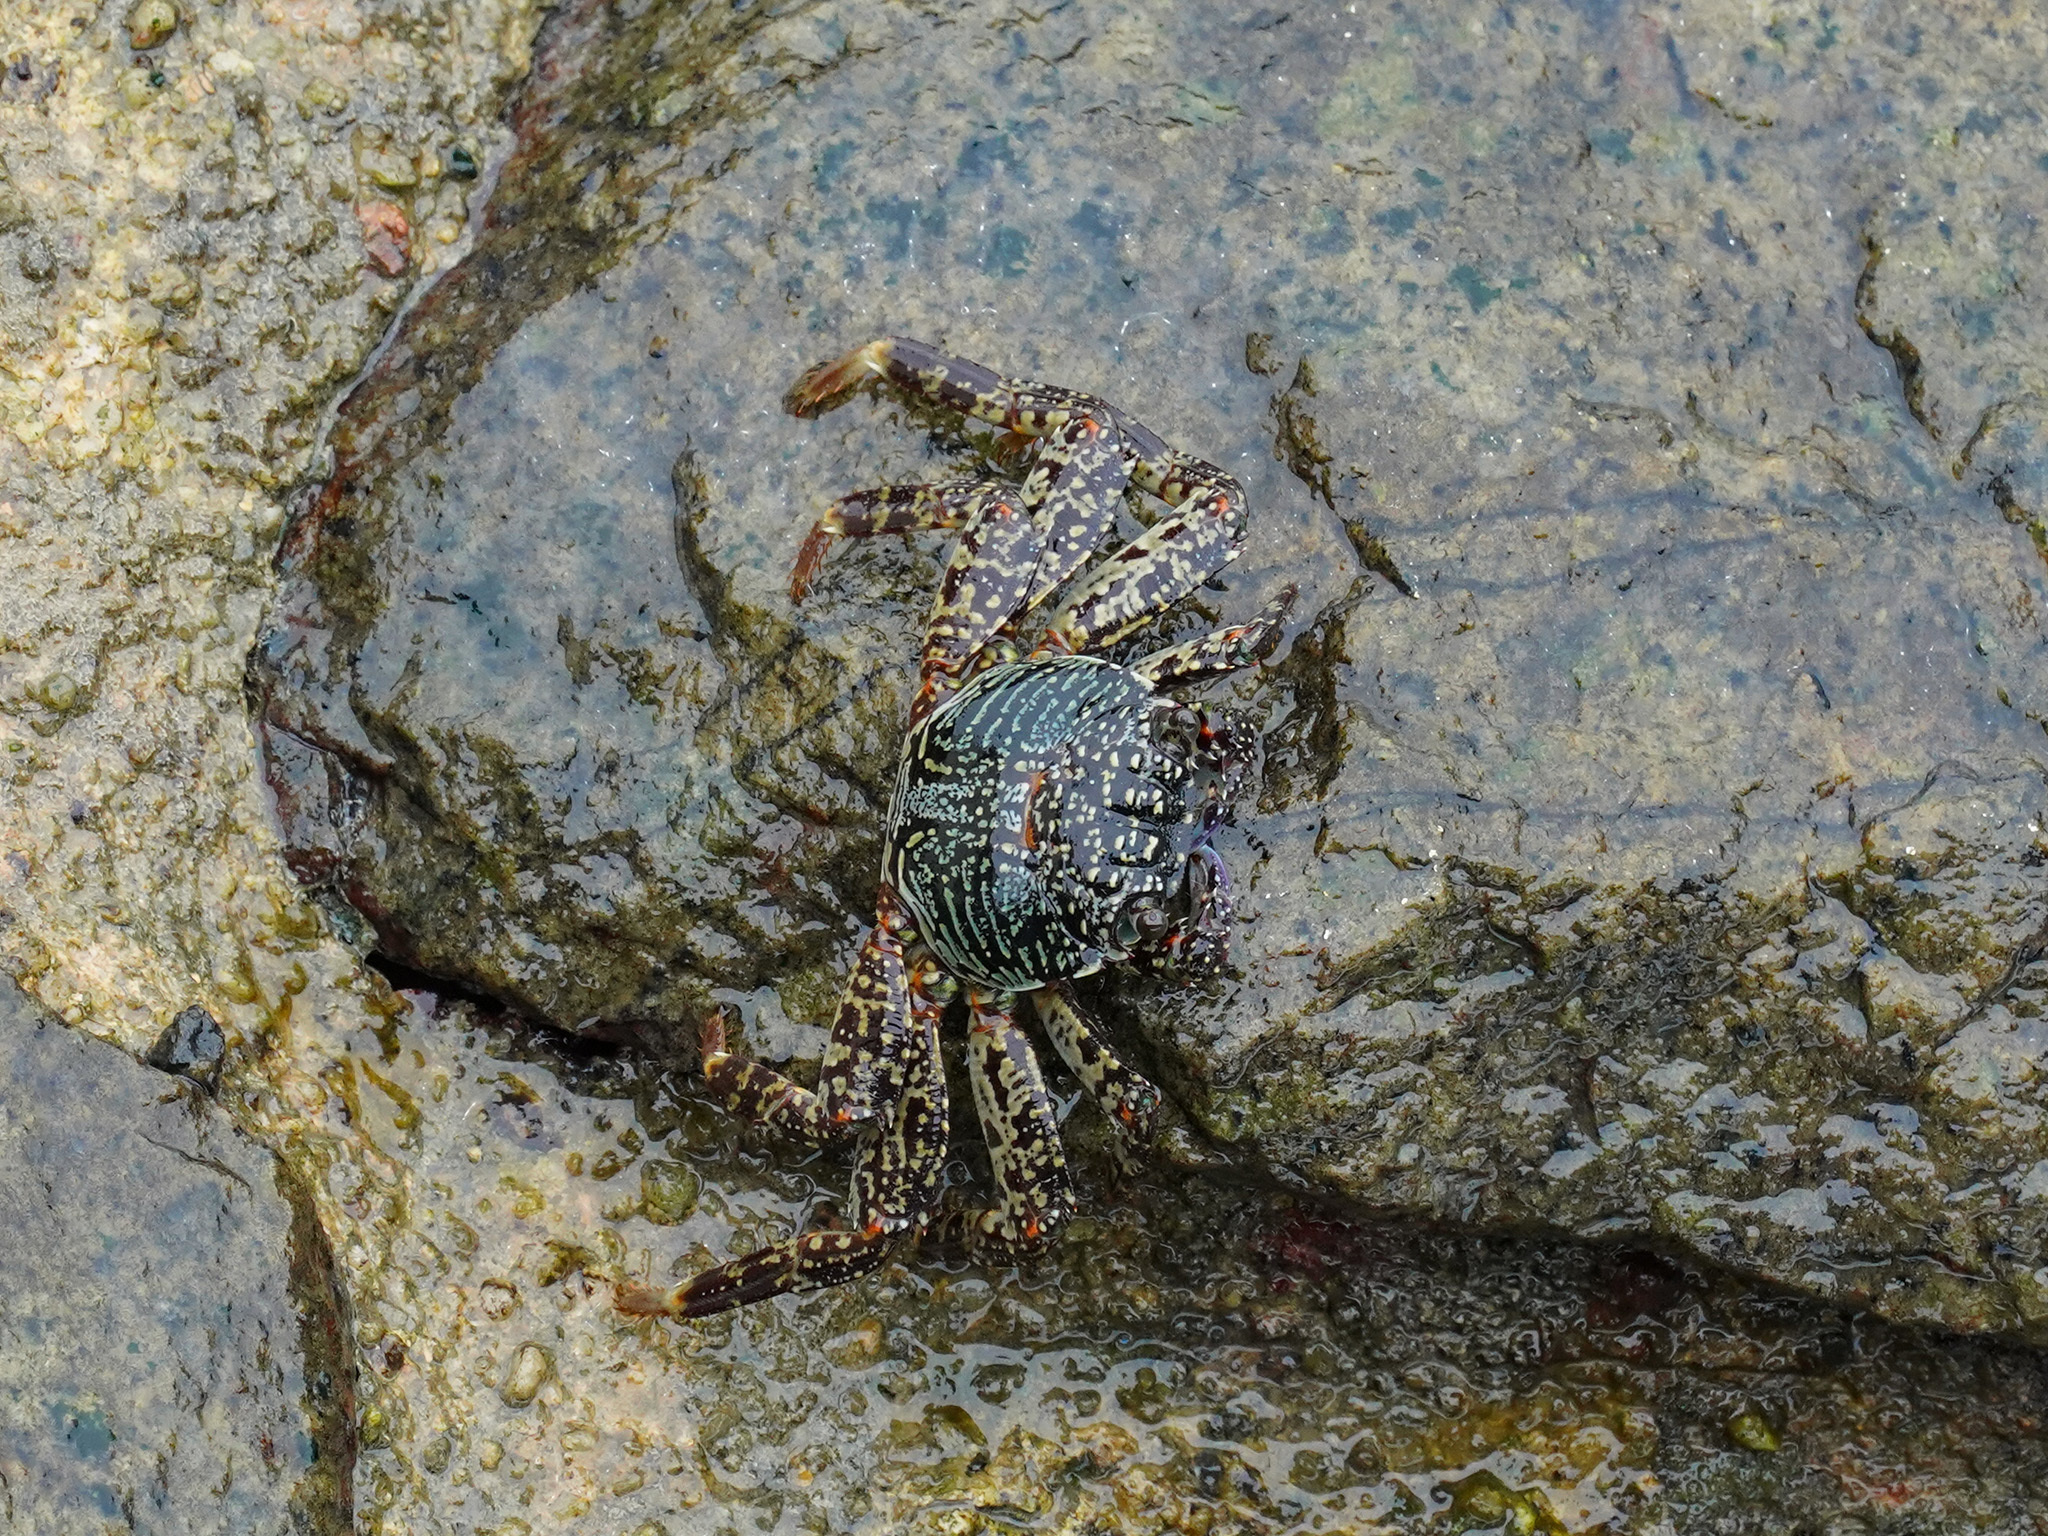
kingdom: Animalia
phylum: Arthropoda
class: Malacostraca
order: Decapoda
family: Grapsidae
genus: Grapsus
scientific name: Grapsus albolineatus
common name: Mottled lightfoot crab
